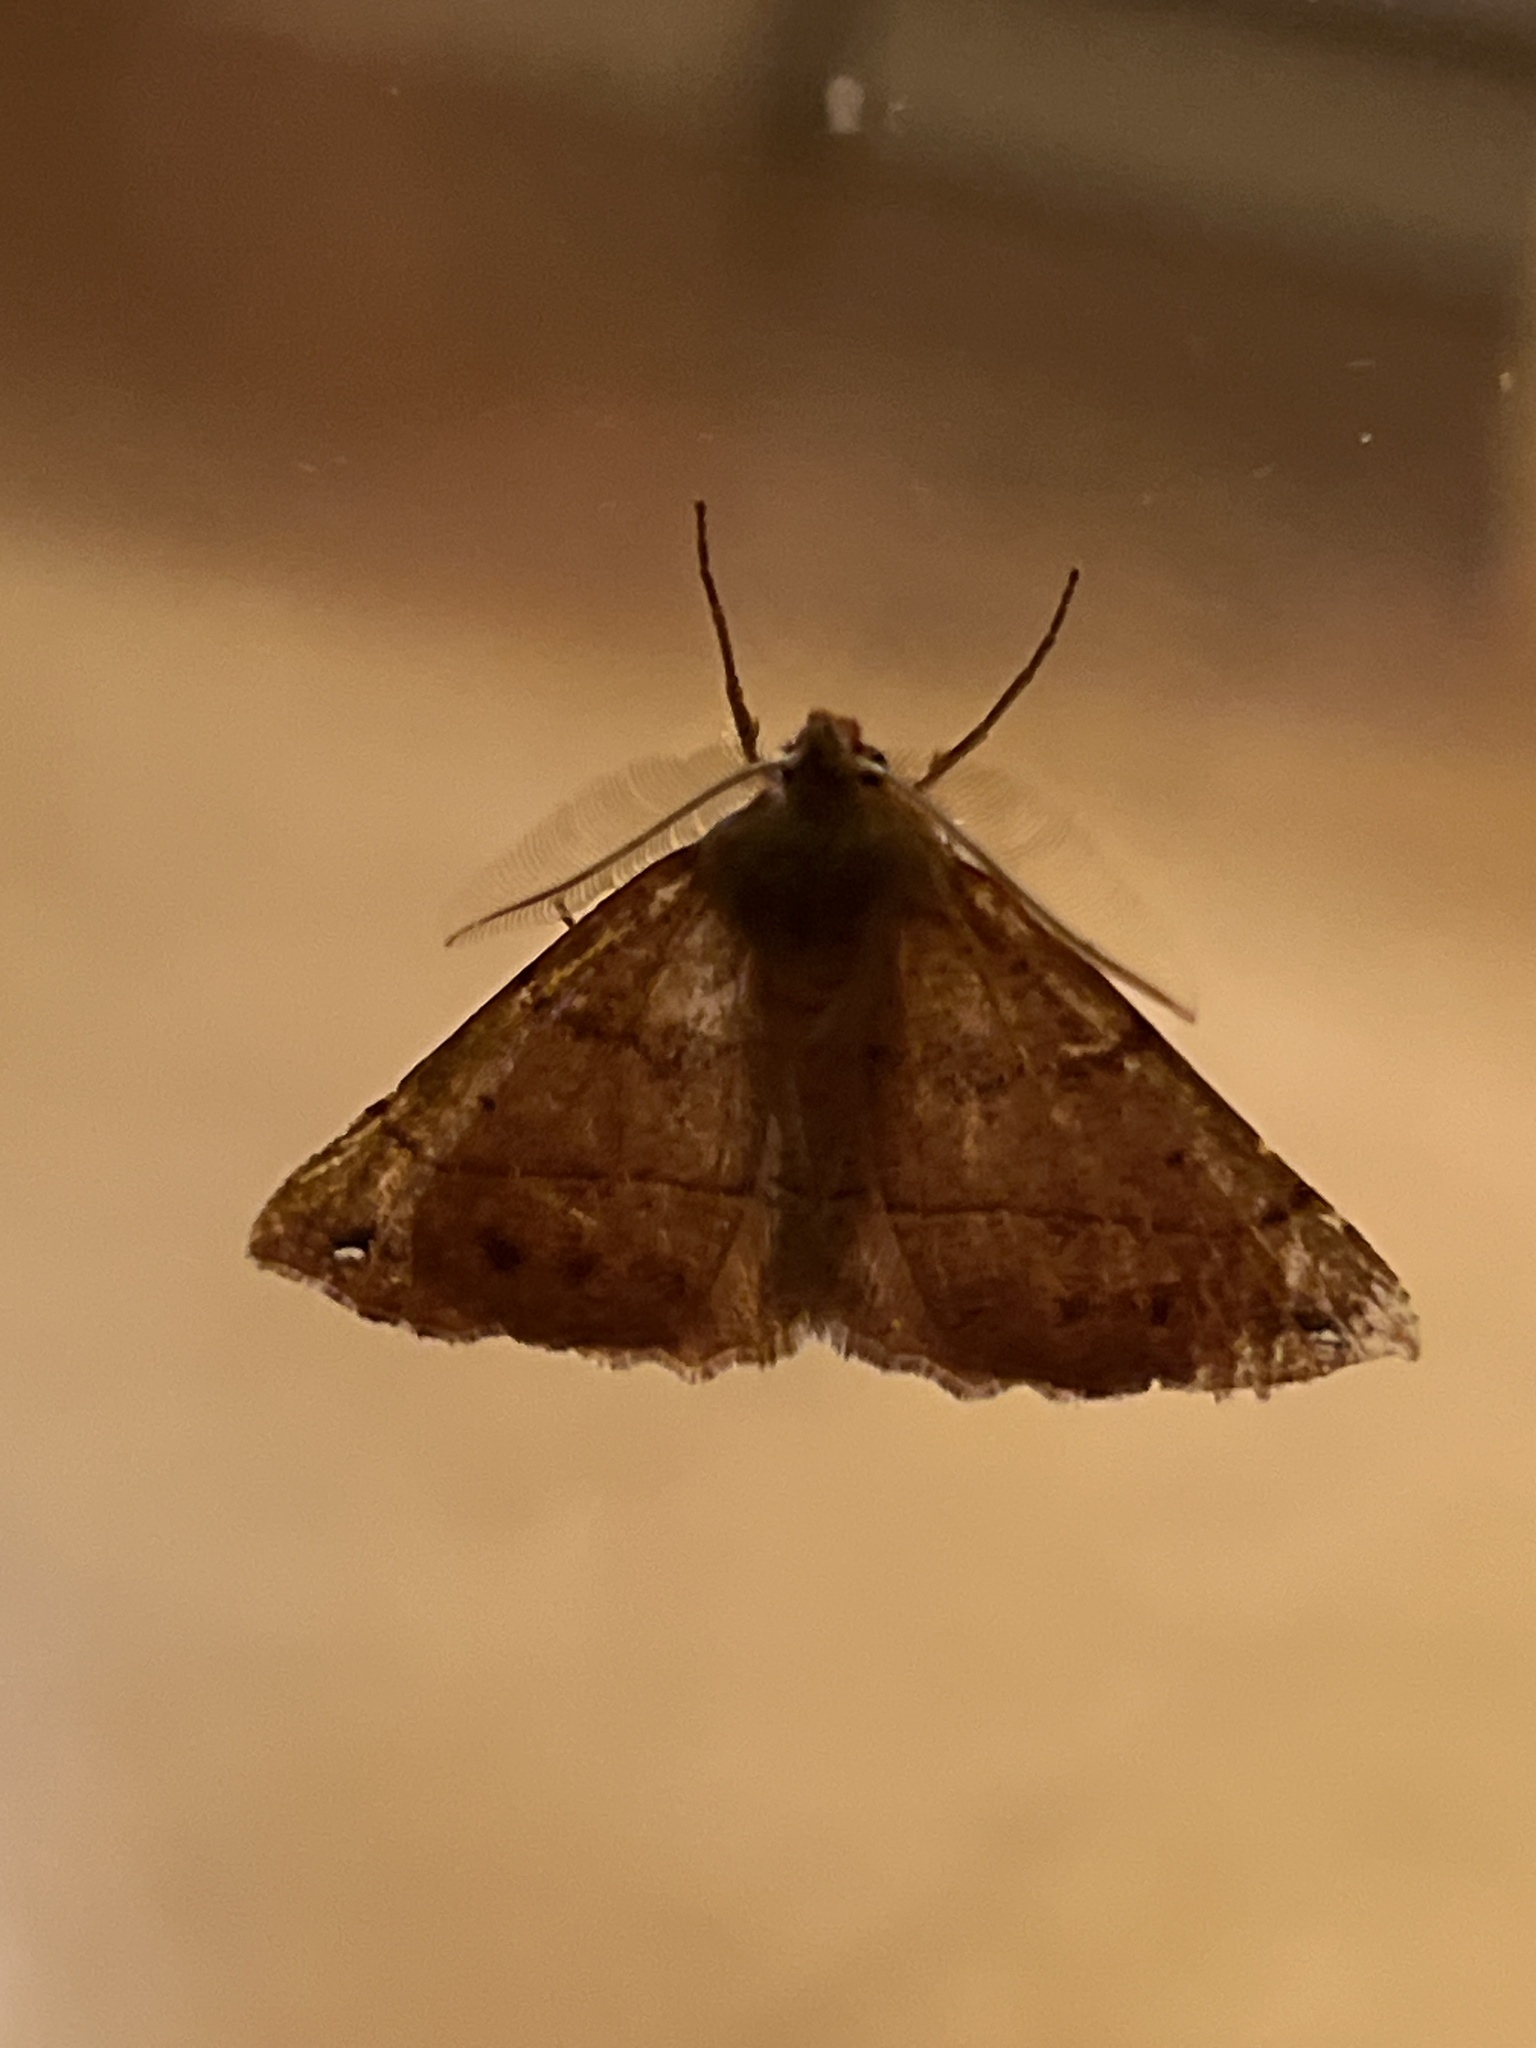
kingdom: Animalia
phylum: Arthropoda
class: Insecta
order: Lepidoptera
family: Geometridae
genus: Colotois
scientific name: Colotois pennaria
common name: Feathered thorn
